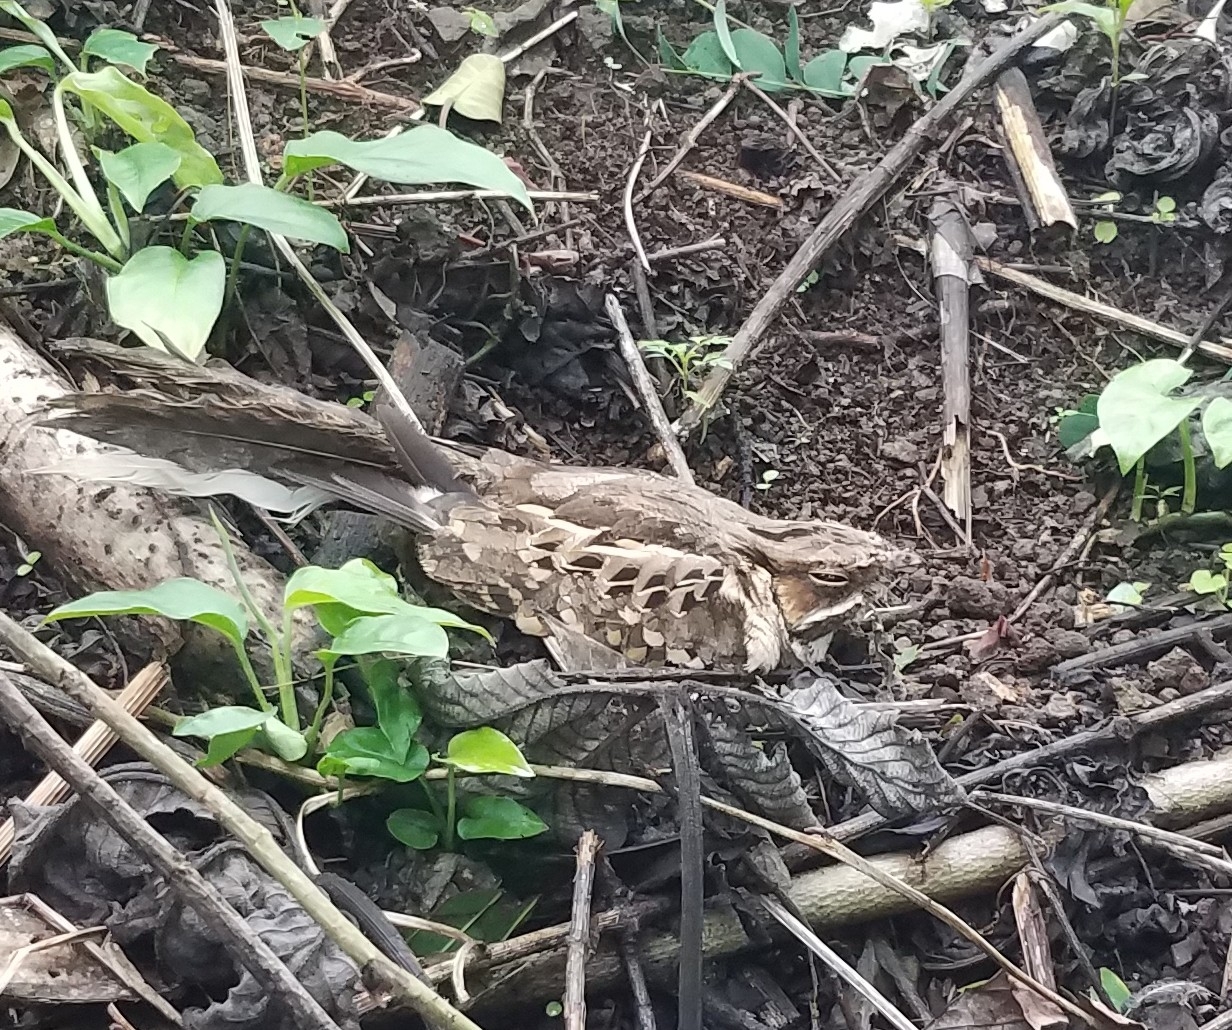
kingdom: Animalia
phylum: Chordata
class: Aves
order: Caprimulgiformes
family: Caprimulgidae
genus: Nyctidromus
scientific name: Nyctidromus albicollis
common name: Pauraque
